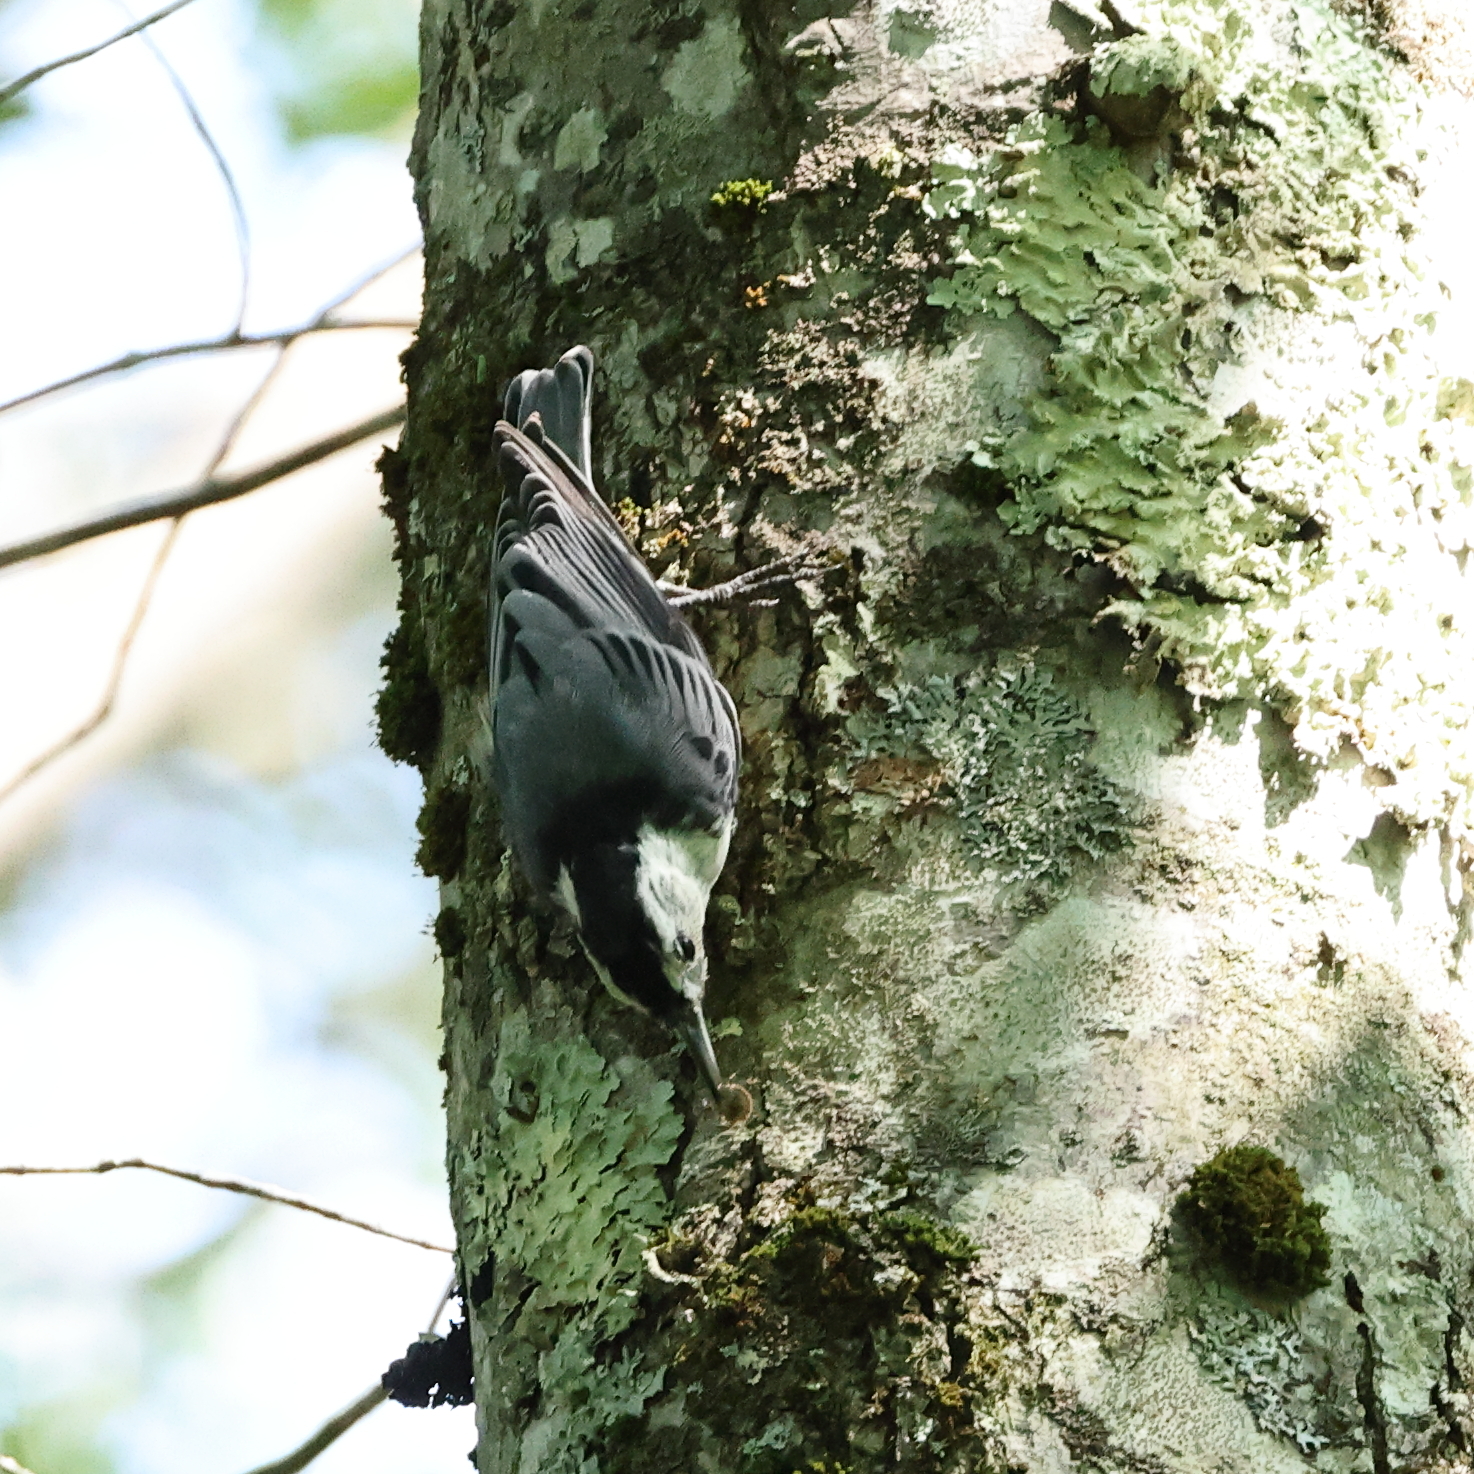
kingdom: Animalia
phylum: Chordata
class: Aves
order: Passeriformes
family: Sittidae
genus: Sitta
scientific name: Sitta carolinensis
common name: White-breasted nuthatch
